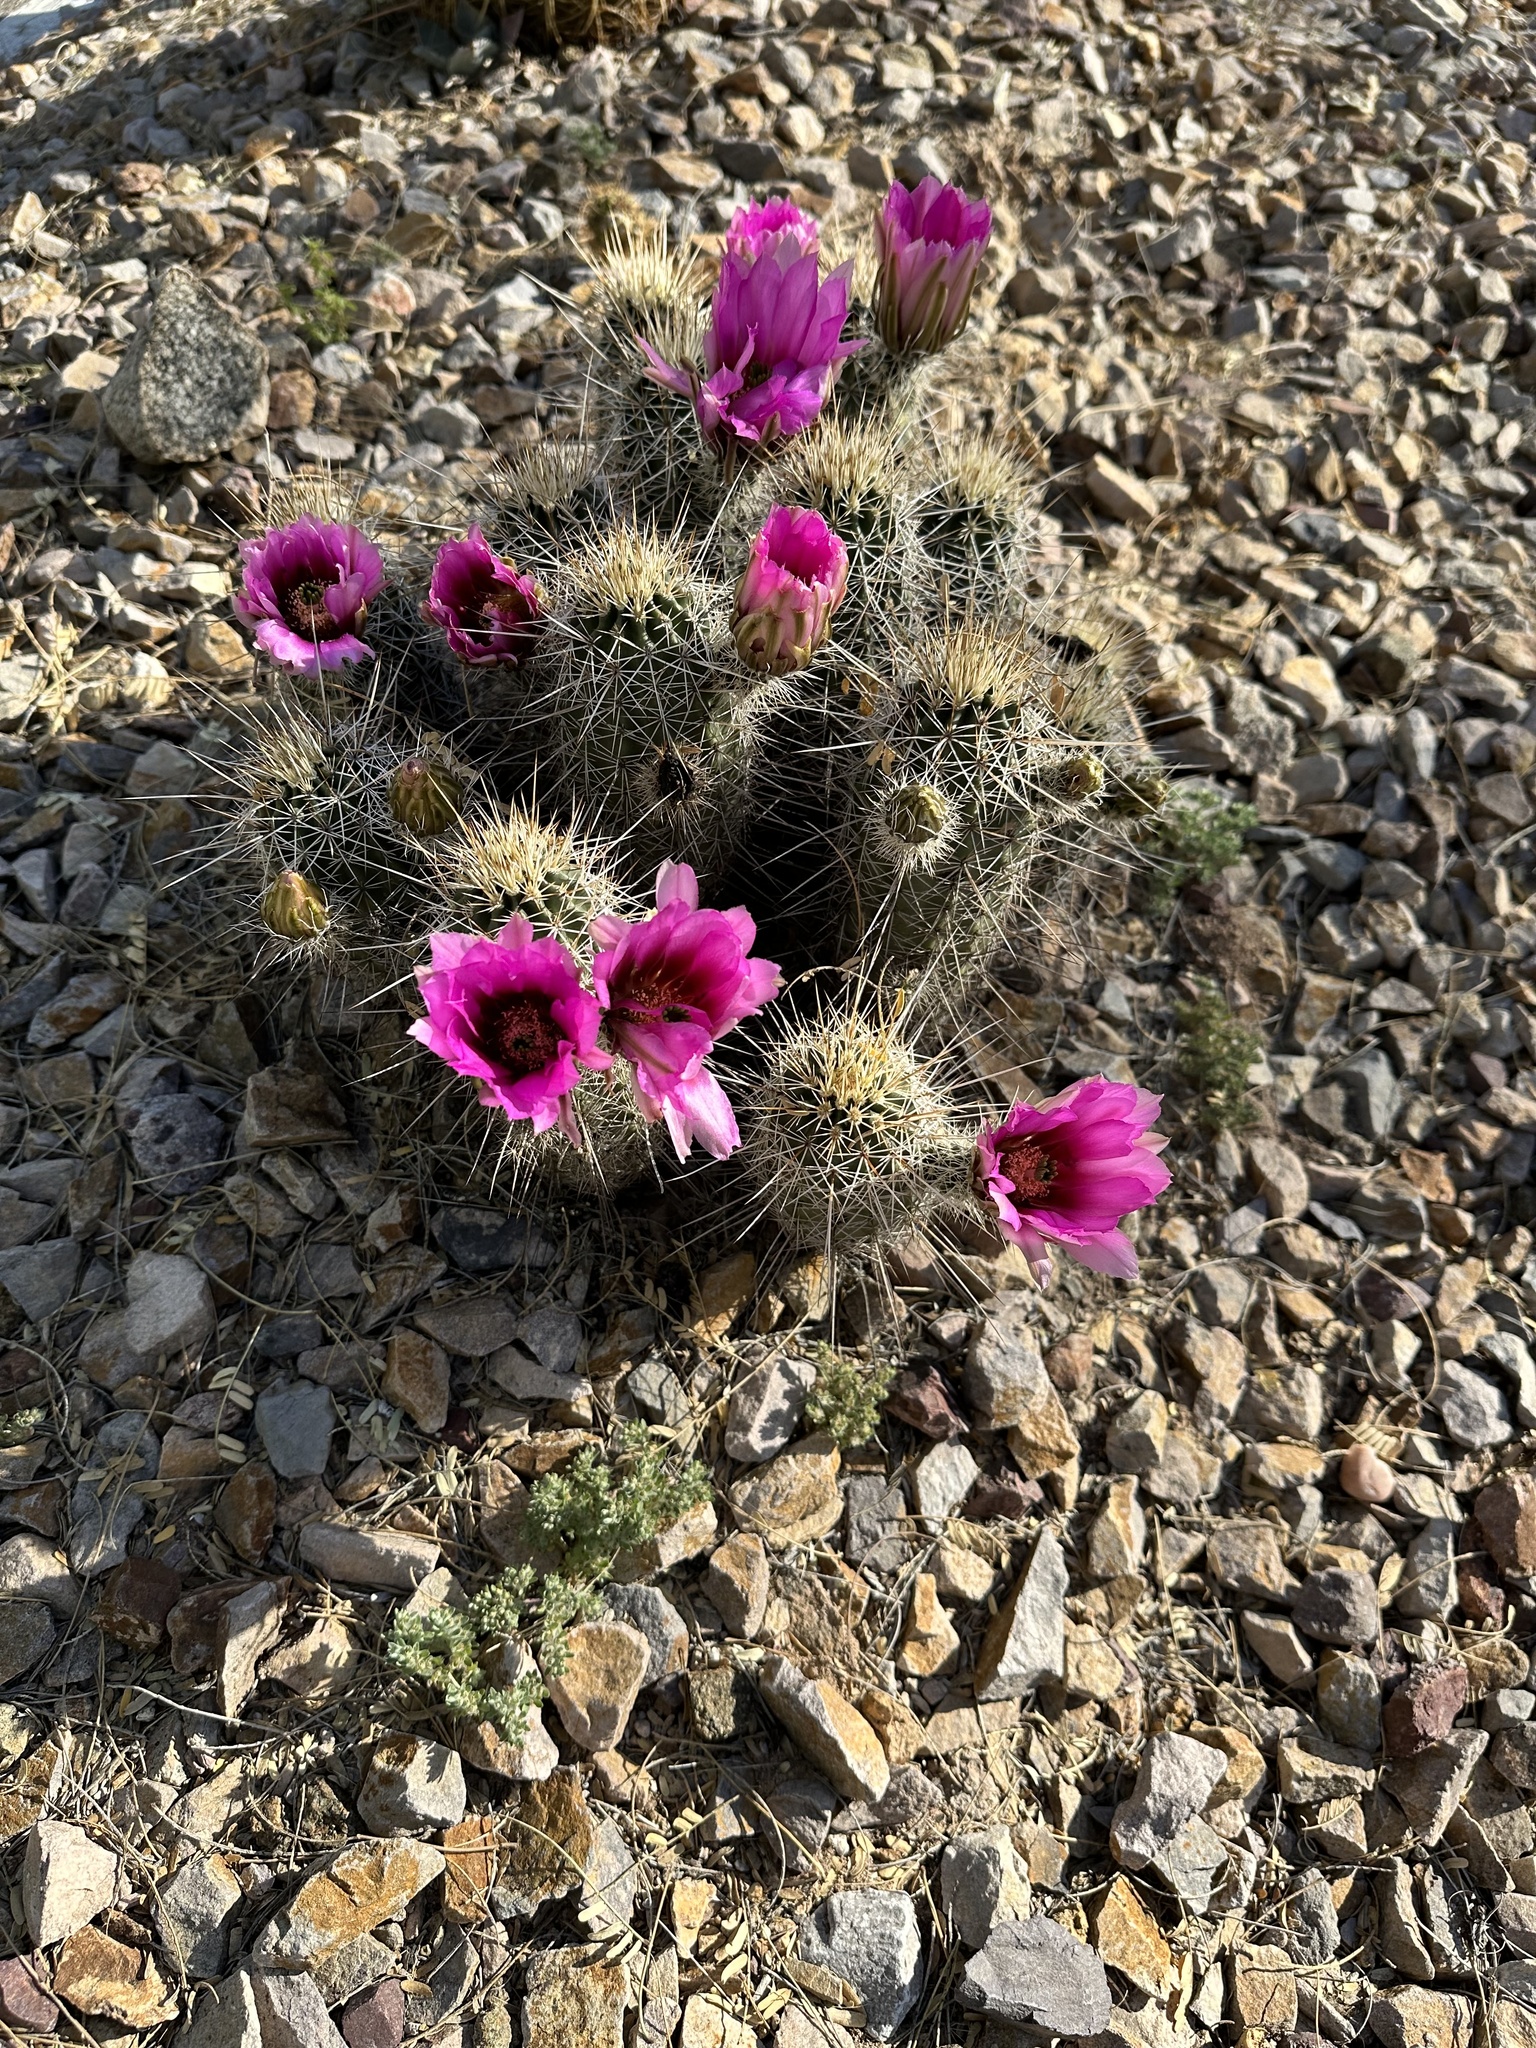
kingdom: Plantae
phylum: Tracheophyta
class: Magnoliopsida
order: Caryophyllales
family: Cactaceae
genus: Echinocereus
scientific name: Echinocereus fasciculatus
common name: Bundle hedgehog
